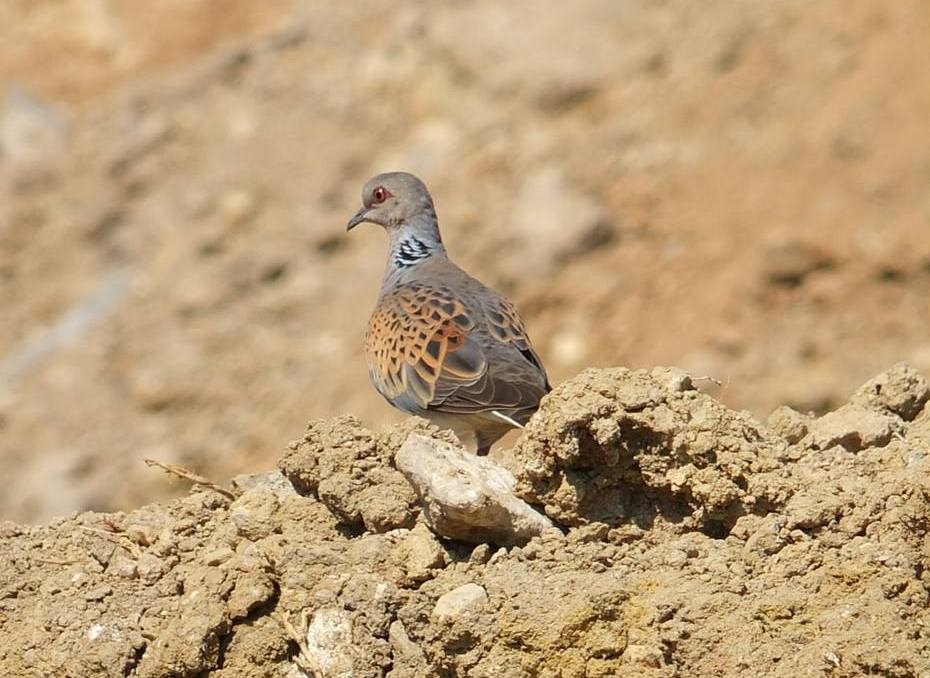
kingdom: Animalia
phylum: Chordata
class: Aves
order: Columbiformes
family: Columbidae
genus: Streptopelia
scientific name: Streptopelia turtur
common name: European turtle dove
